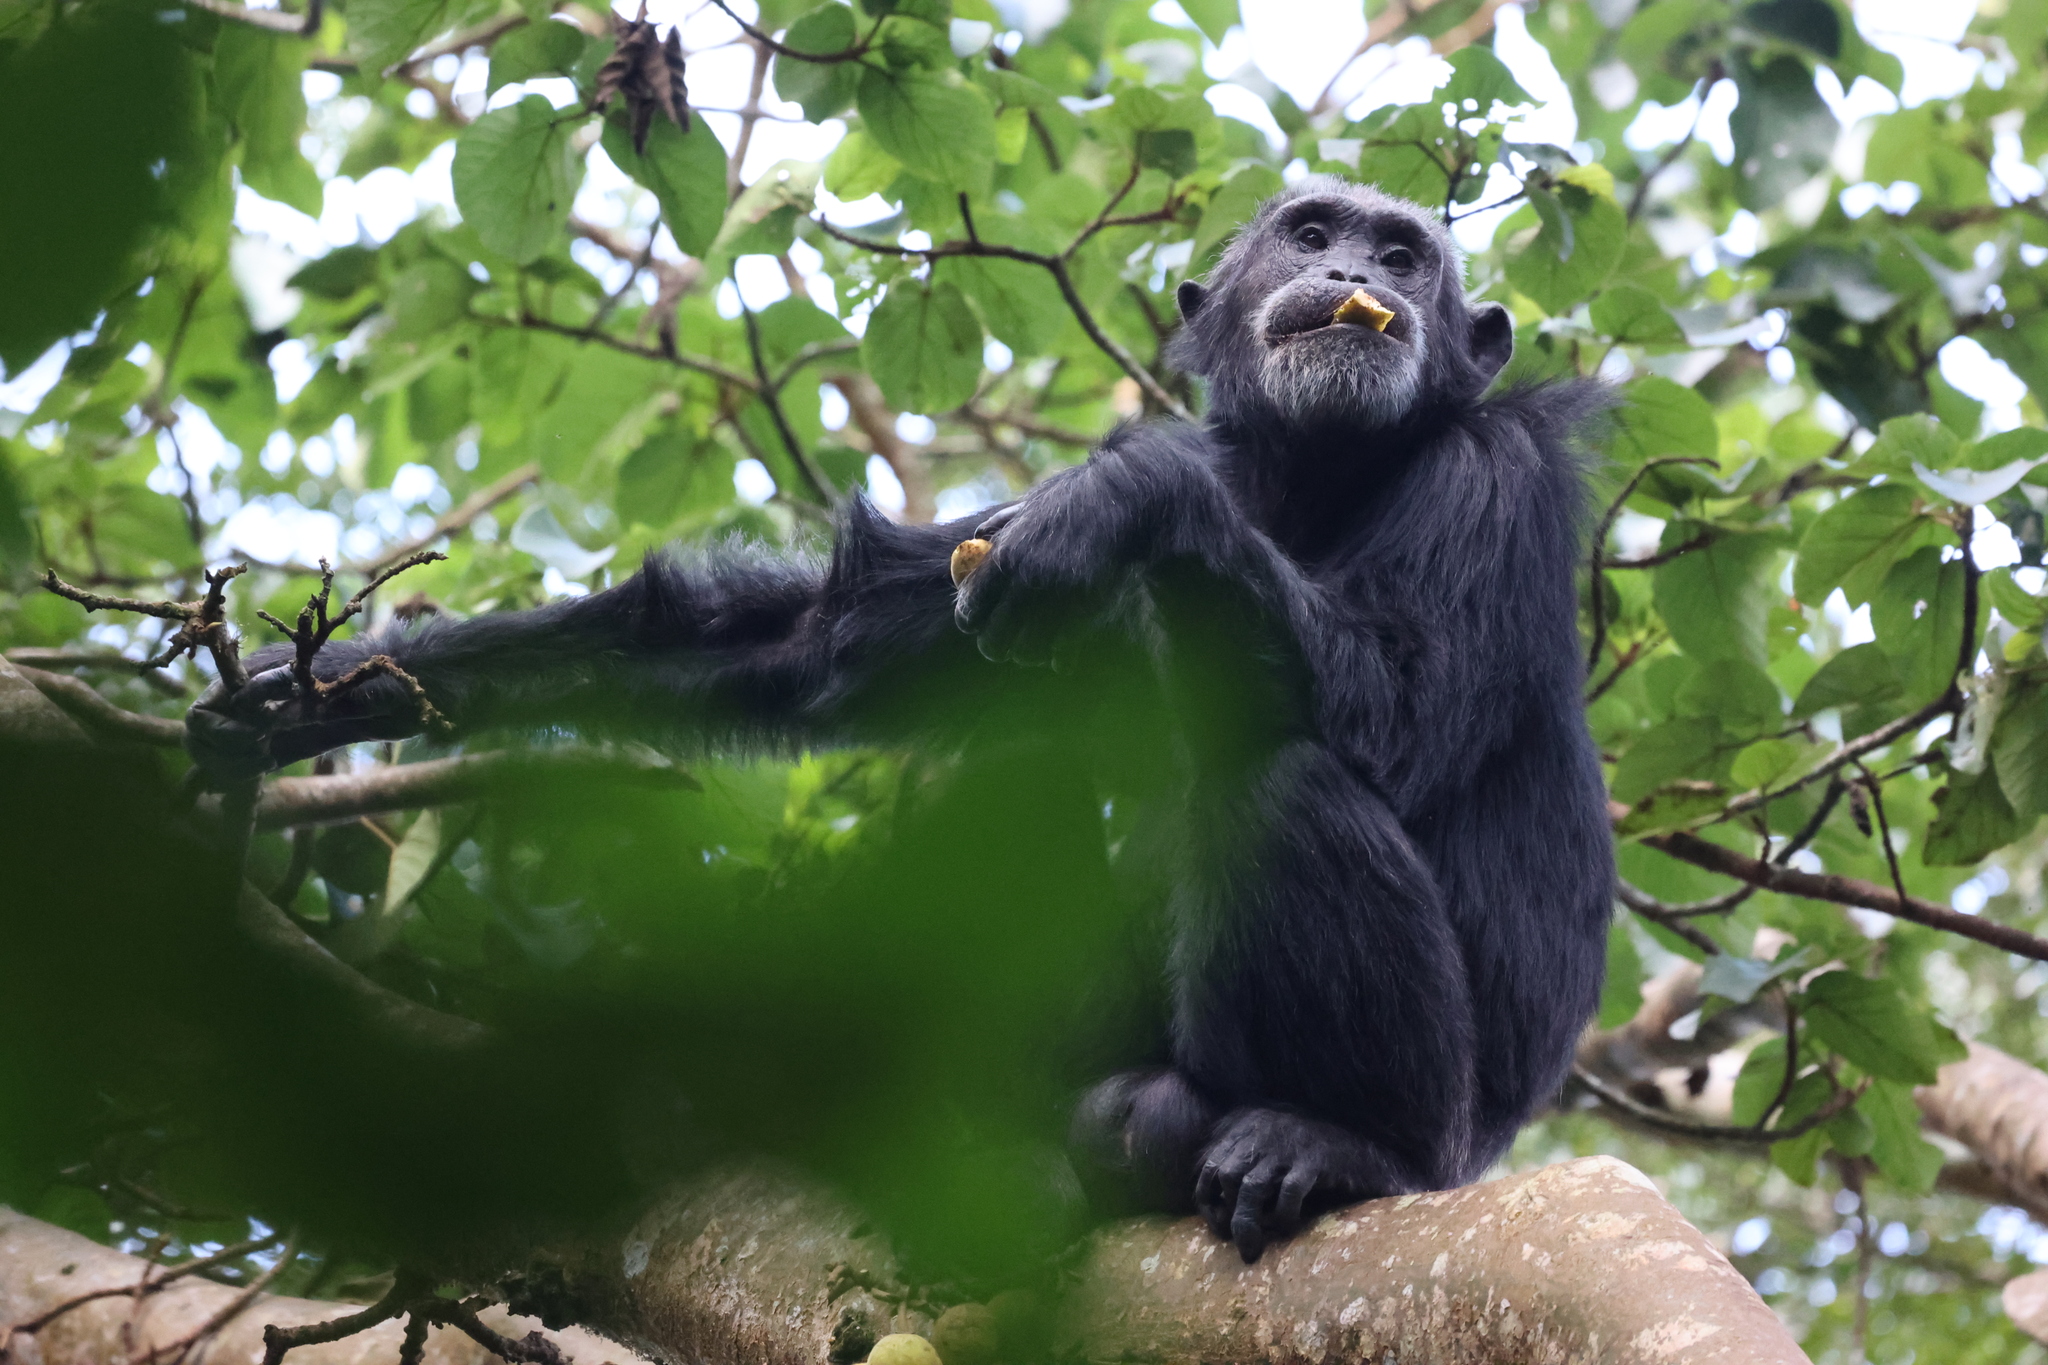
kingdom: Animalia
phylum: Chordata
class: Mammalia
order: Primates
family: Hominidae
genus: Pan
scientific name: Pan troglodytes
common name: Chimpanzee
